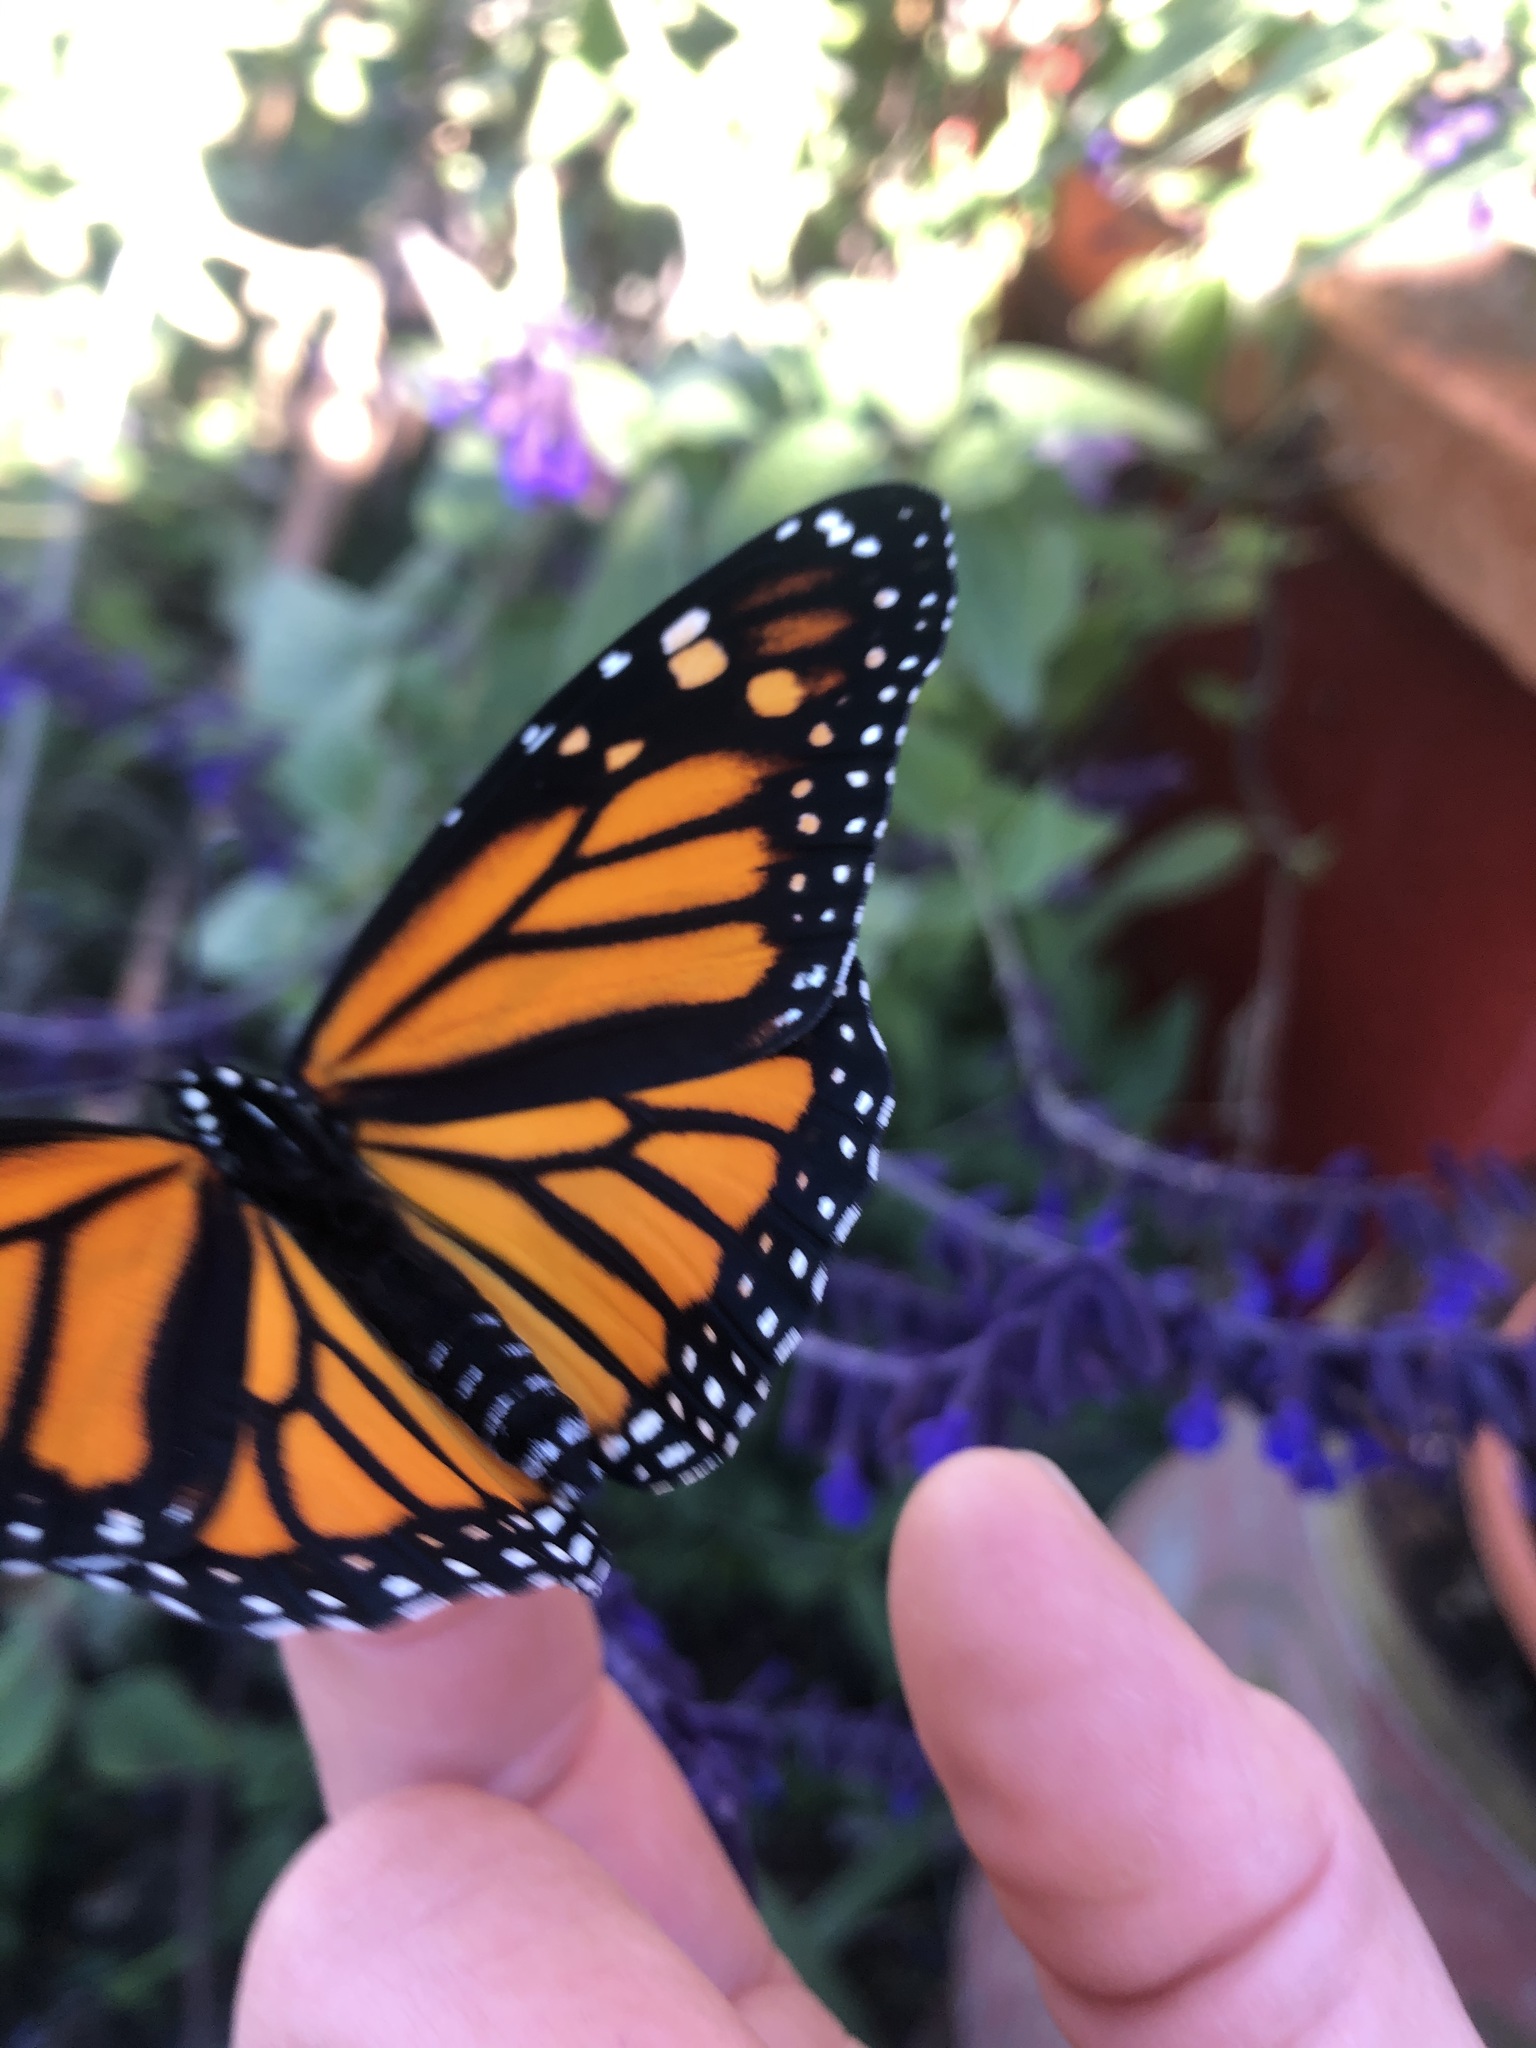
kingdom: Animalia
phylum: Arthropoda
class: Insecta
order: Lepidoptera
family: Nymphalidae
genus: Danaus
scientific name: Danaus plexippus
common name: Monarch
